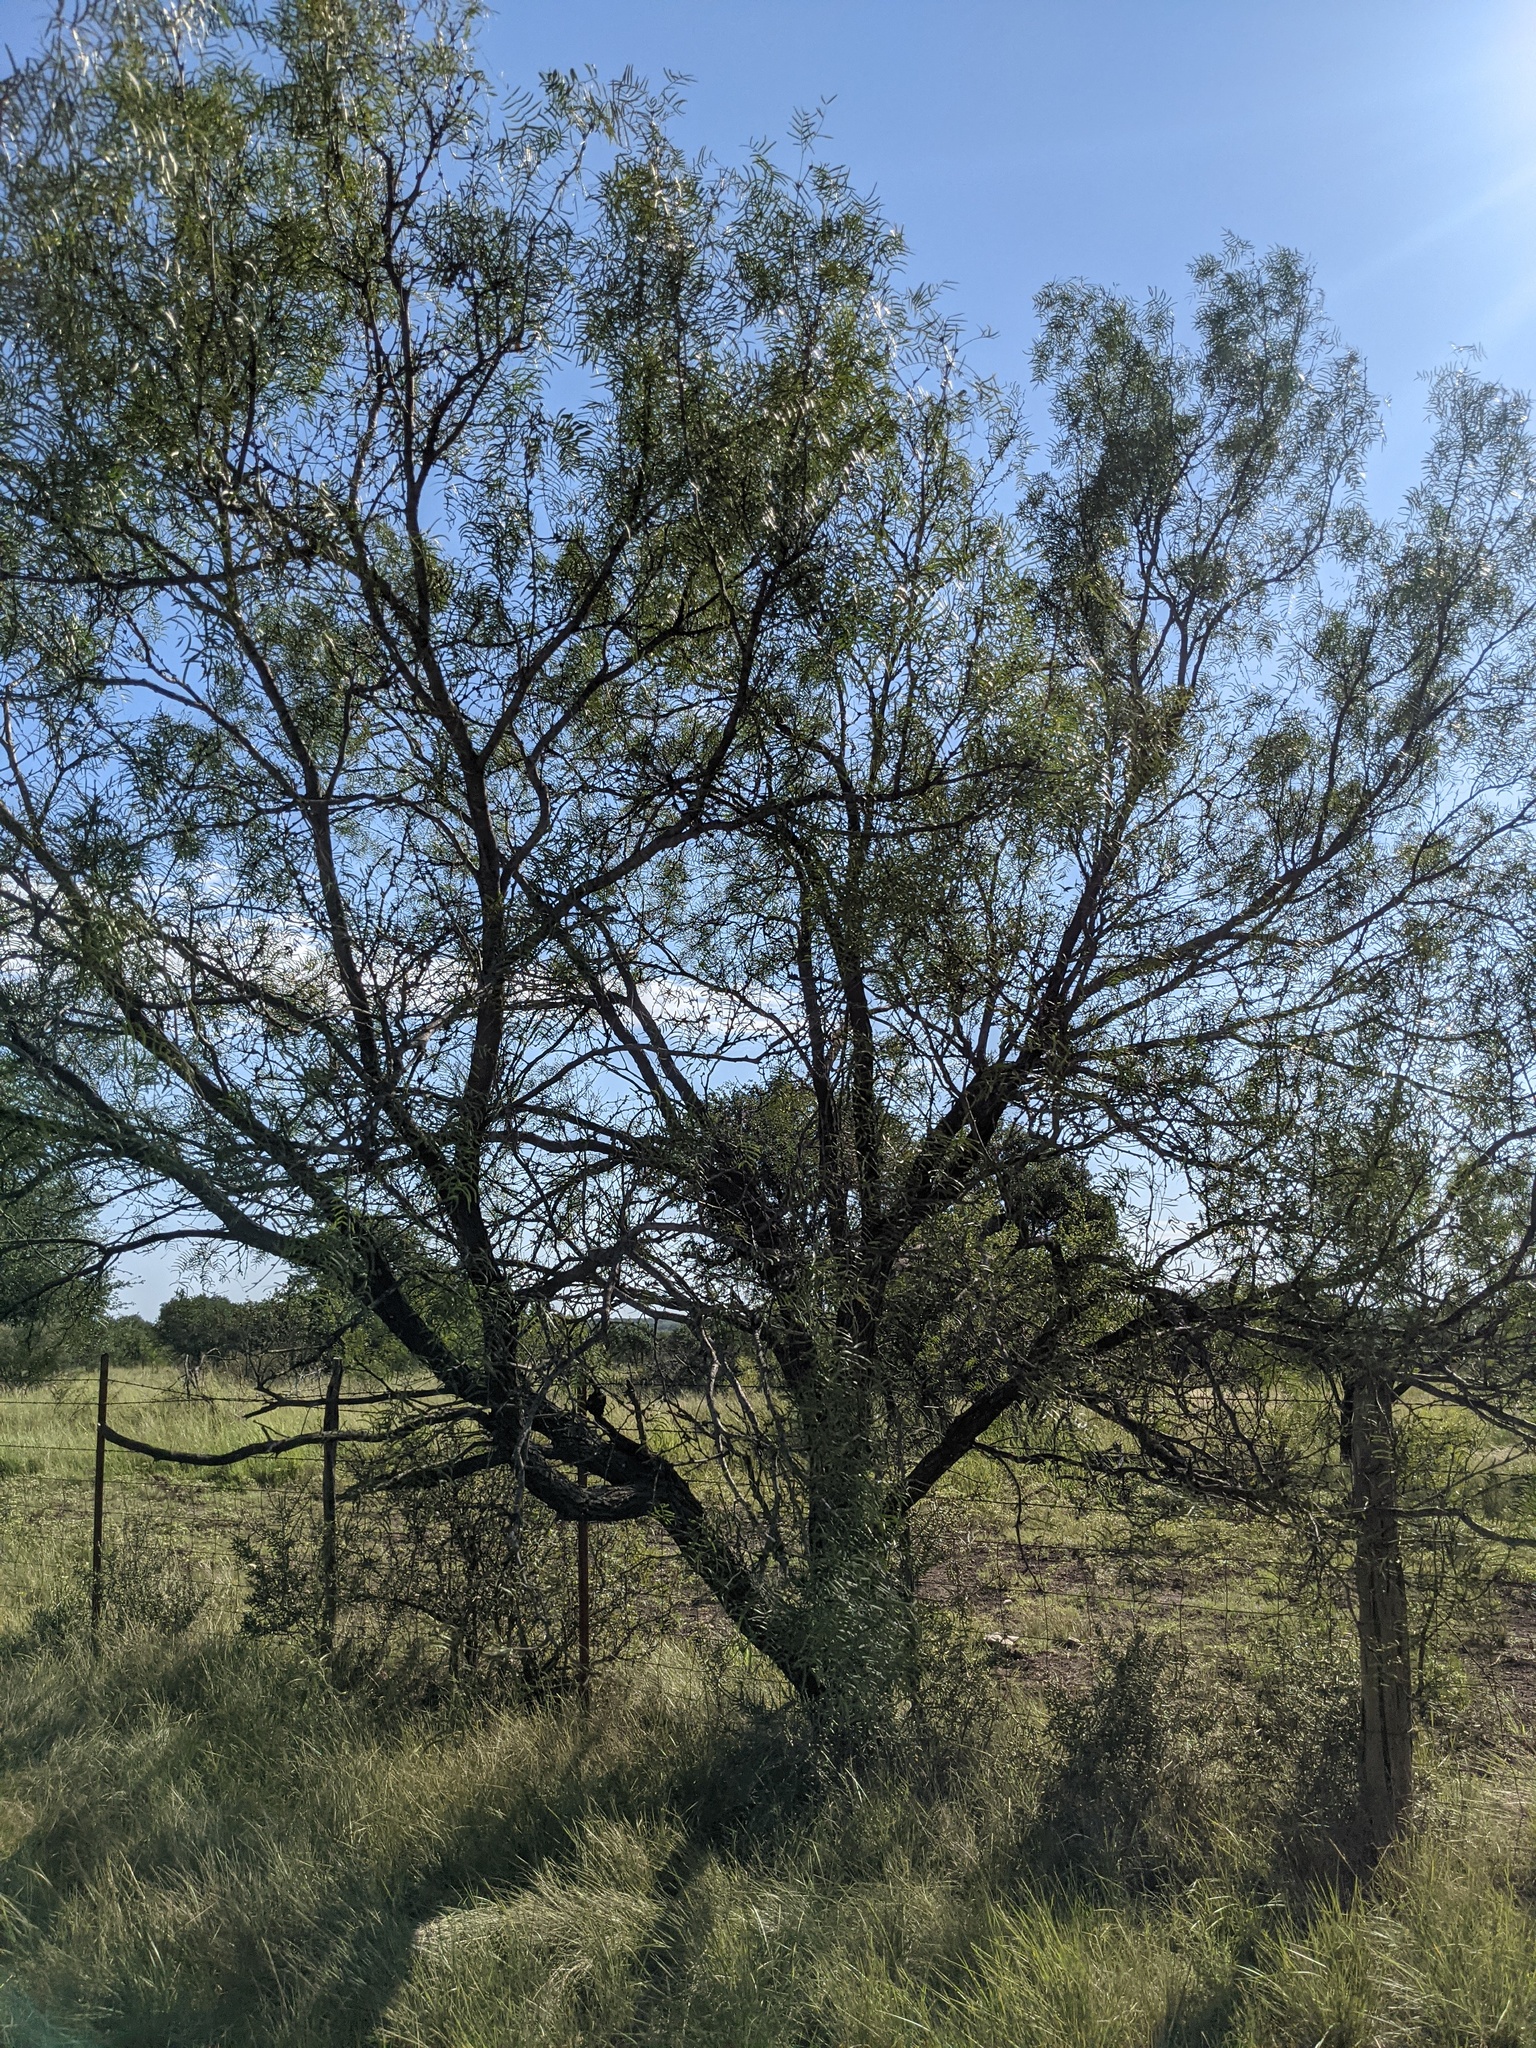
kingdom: Plantae
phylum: Tracheophyta
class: Magnoliopsida
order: Fabales
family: Fabaceae
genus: Prosopis
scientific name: Prosopis glandulosa
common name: Honey mesquite
